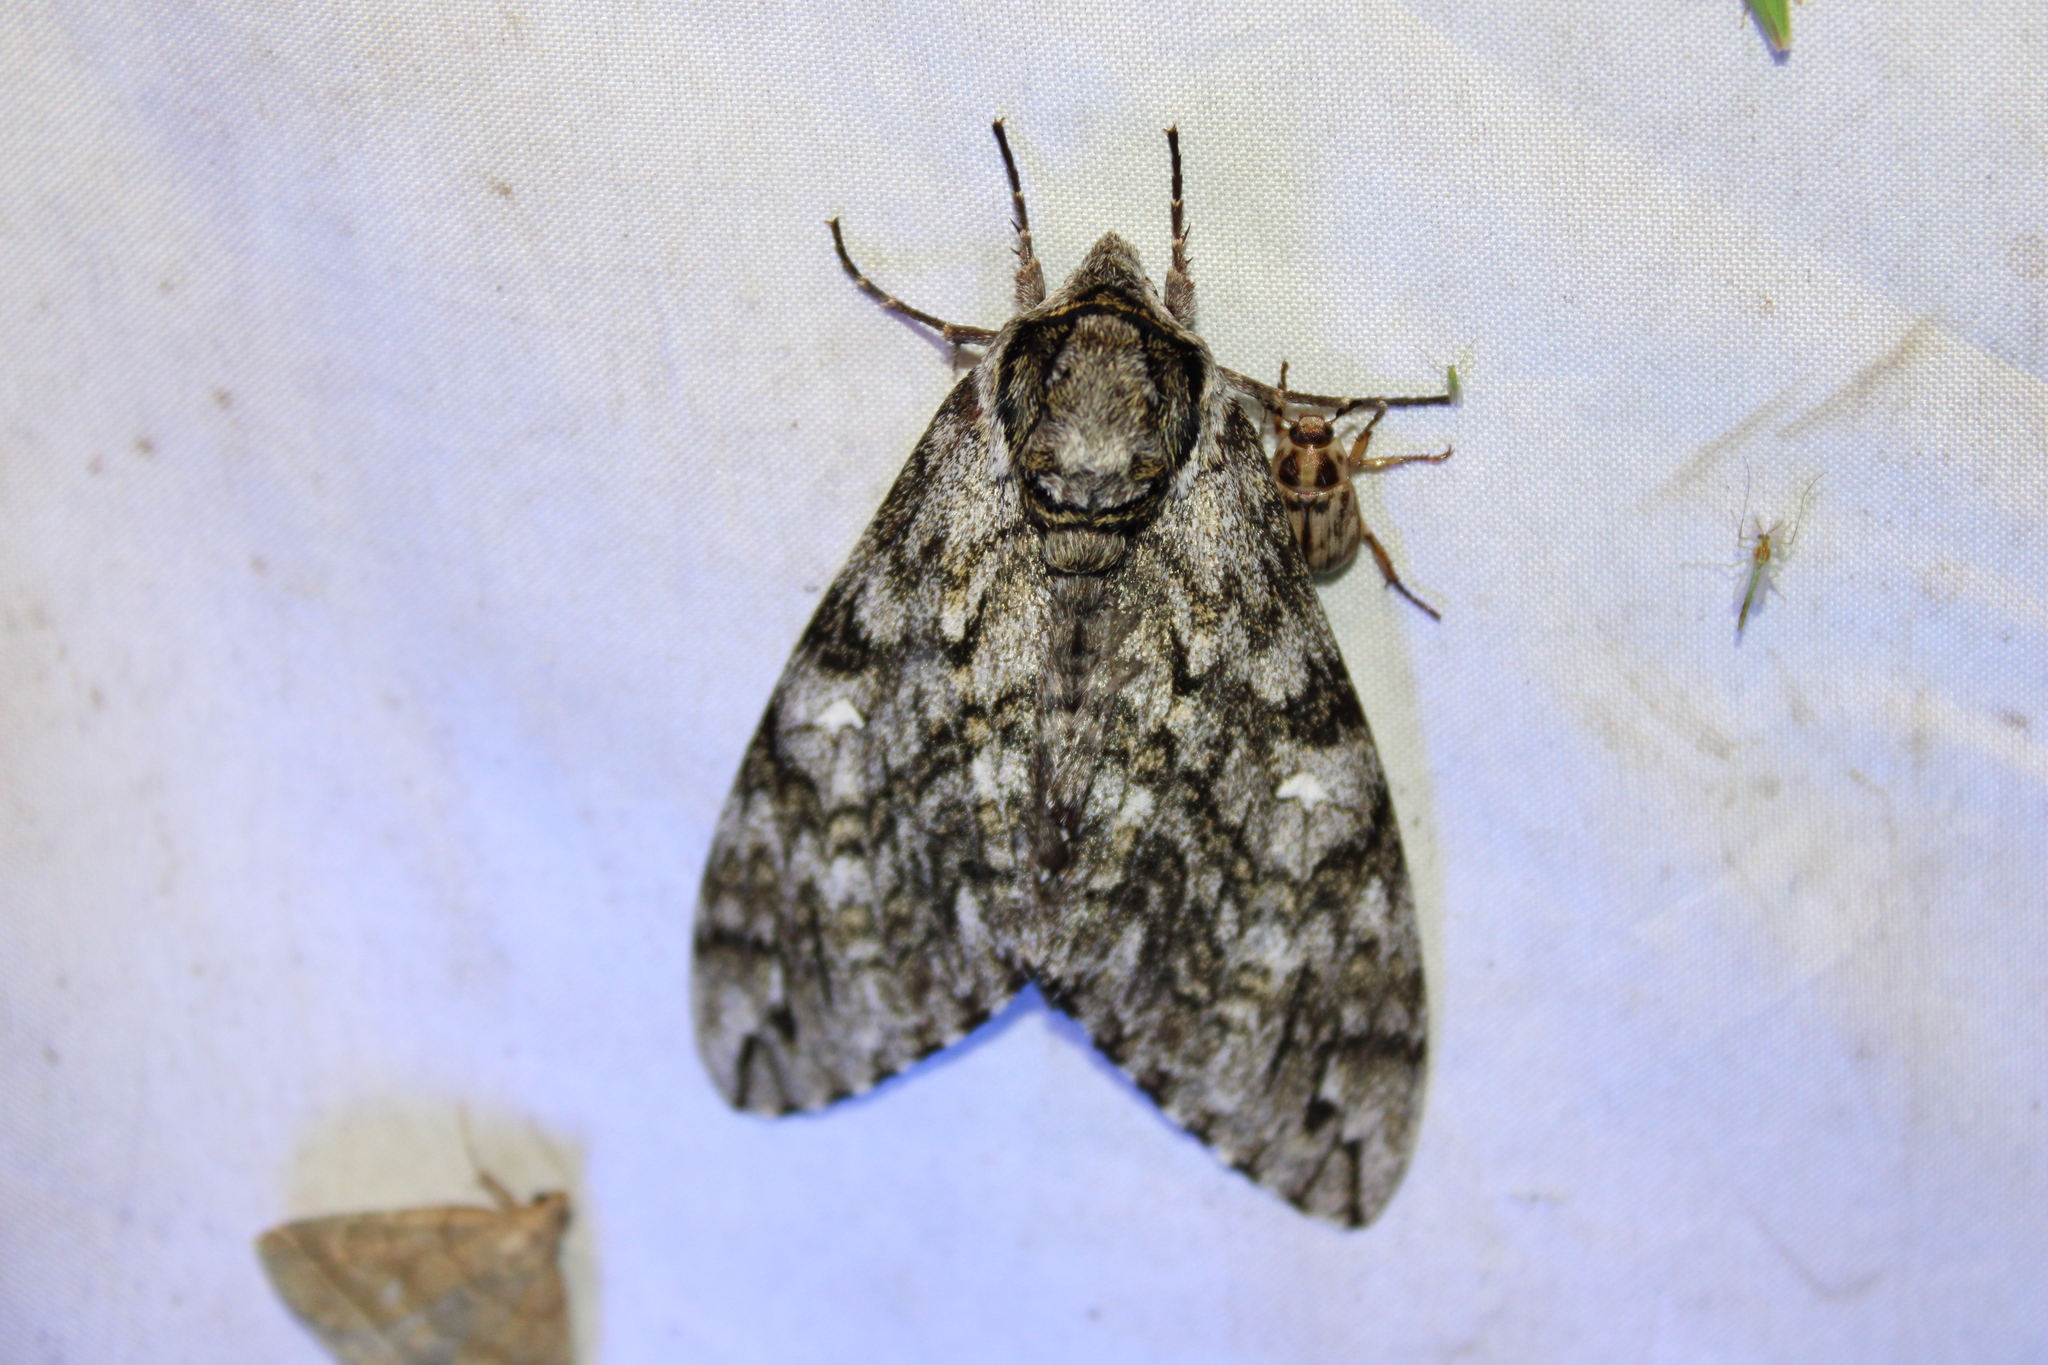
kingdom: Animalia
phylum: Arthropoda
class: Insecta
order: Lepidoptera
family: Sphingidae
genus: Ceratomia
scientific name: Ceratomia undulosa
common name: Waved sphinx
